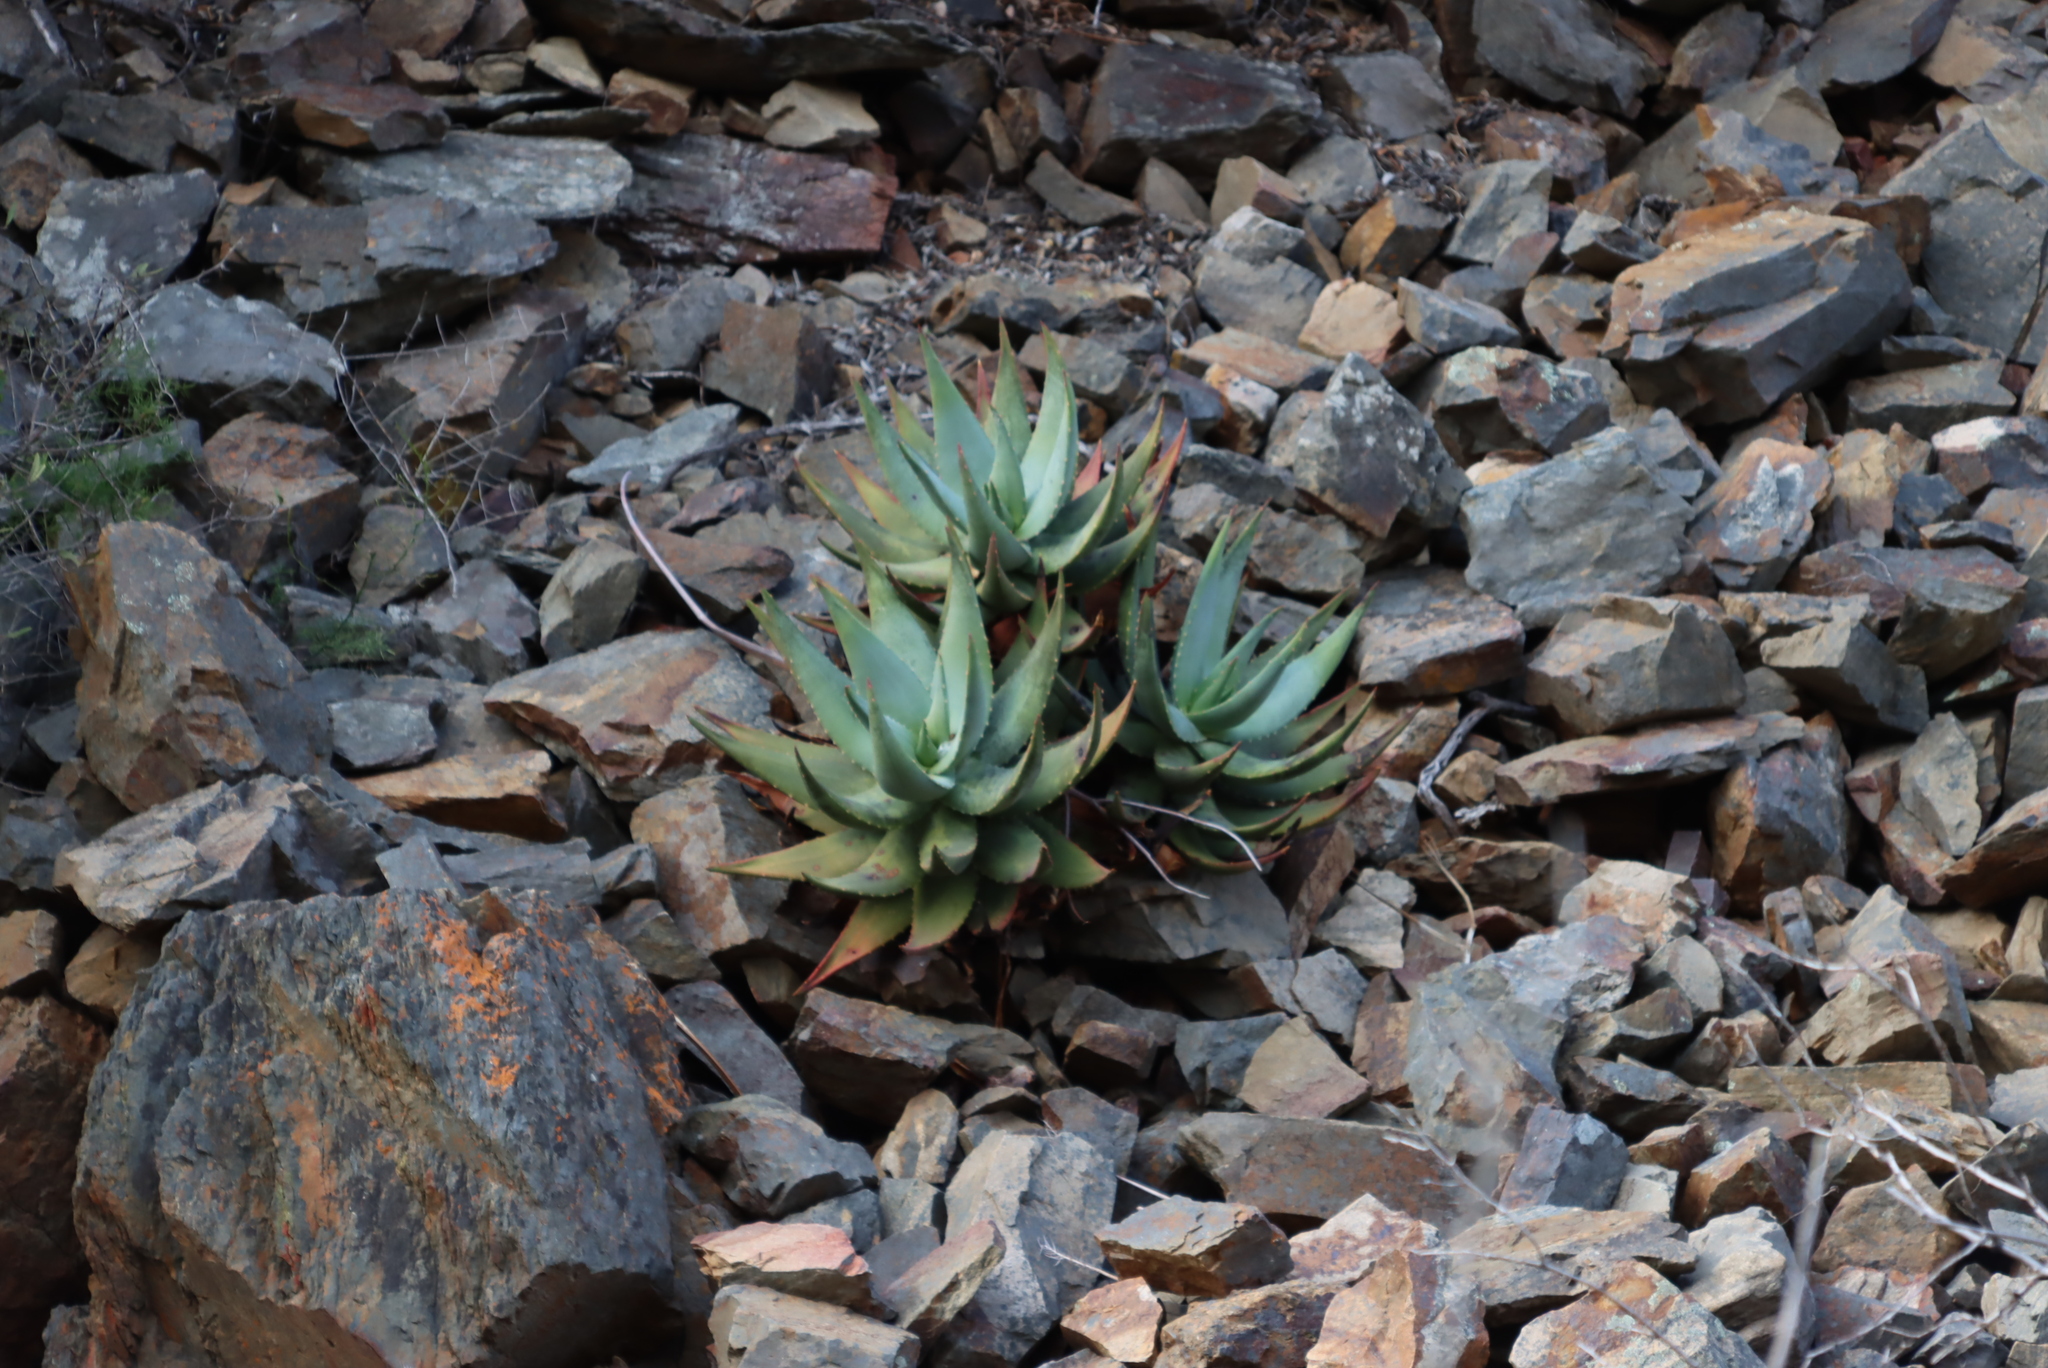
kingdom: Plantae
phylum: Tracheophyta
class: Liliopsida
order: Asparagales
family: Asphodelaceae
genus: Aloe
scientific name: Aloe comptonii
